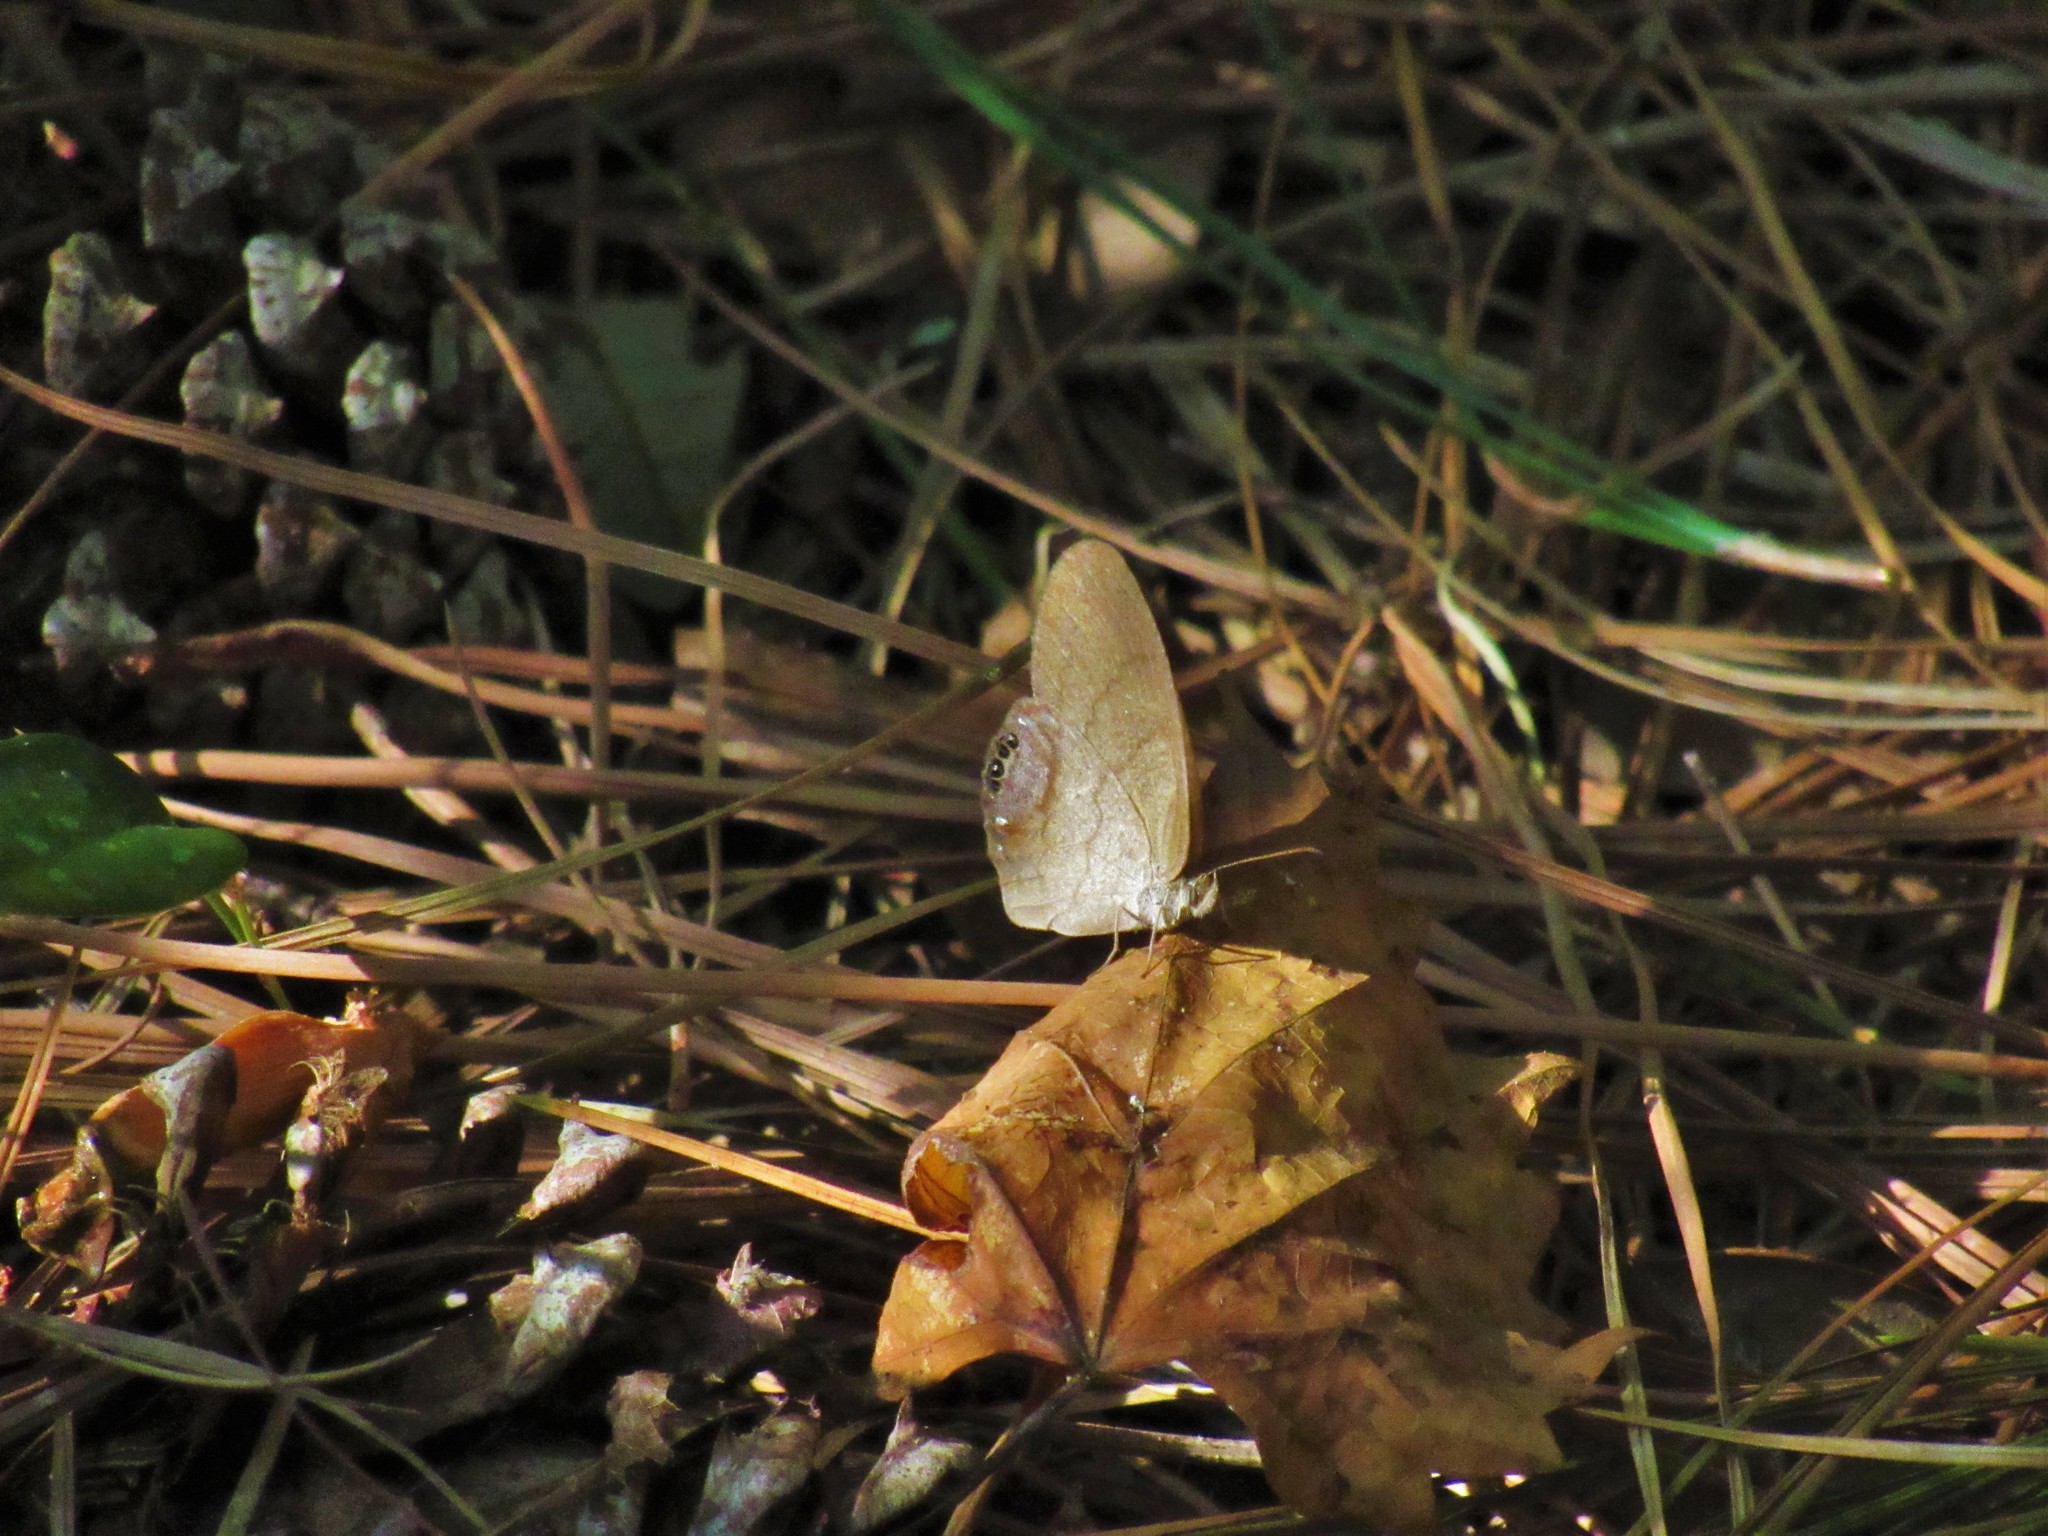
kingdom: Animalia
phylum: Arthropoda
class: Insecta
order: Lepidoptera
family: Nymphalidae
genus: Euptychia
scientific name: Euptychia cornelius
